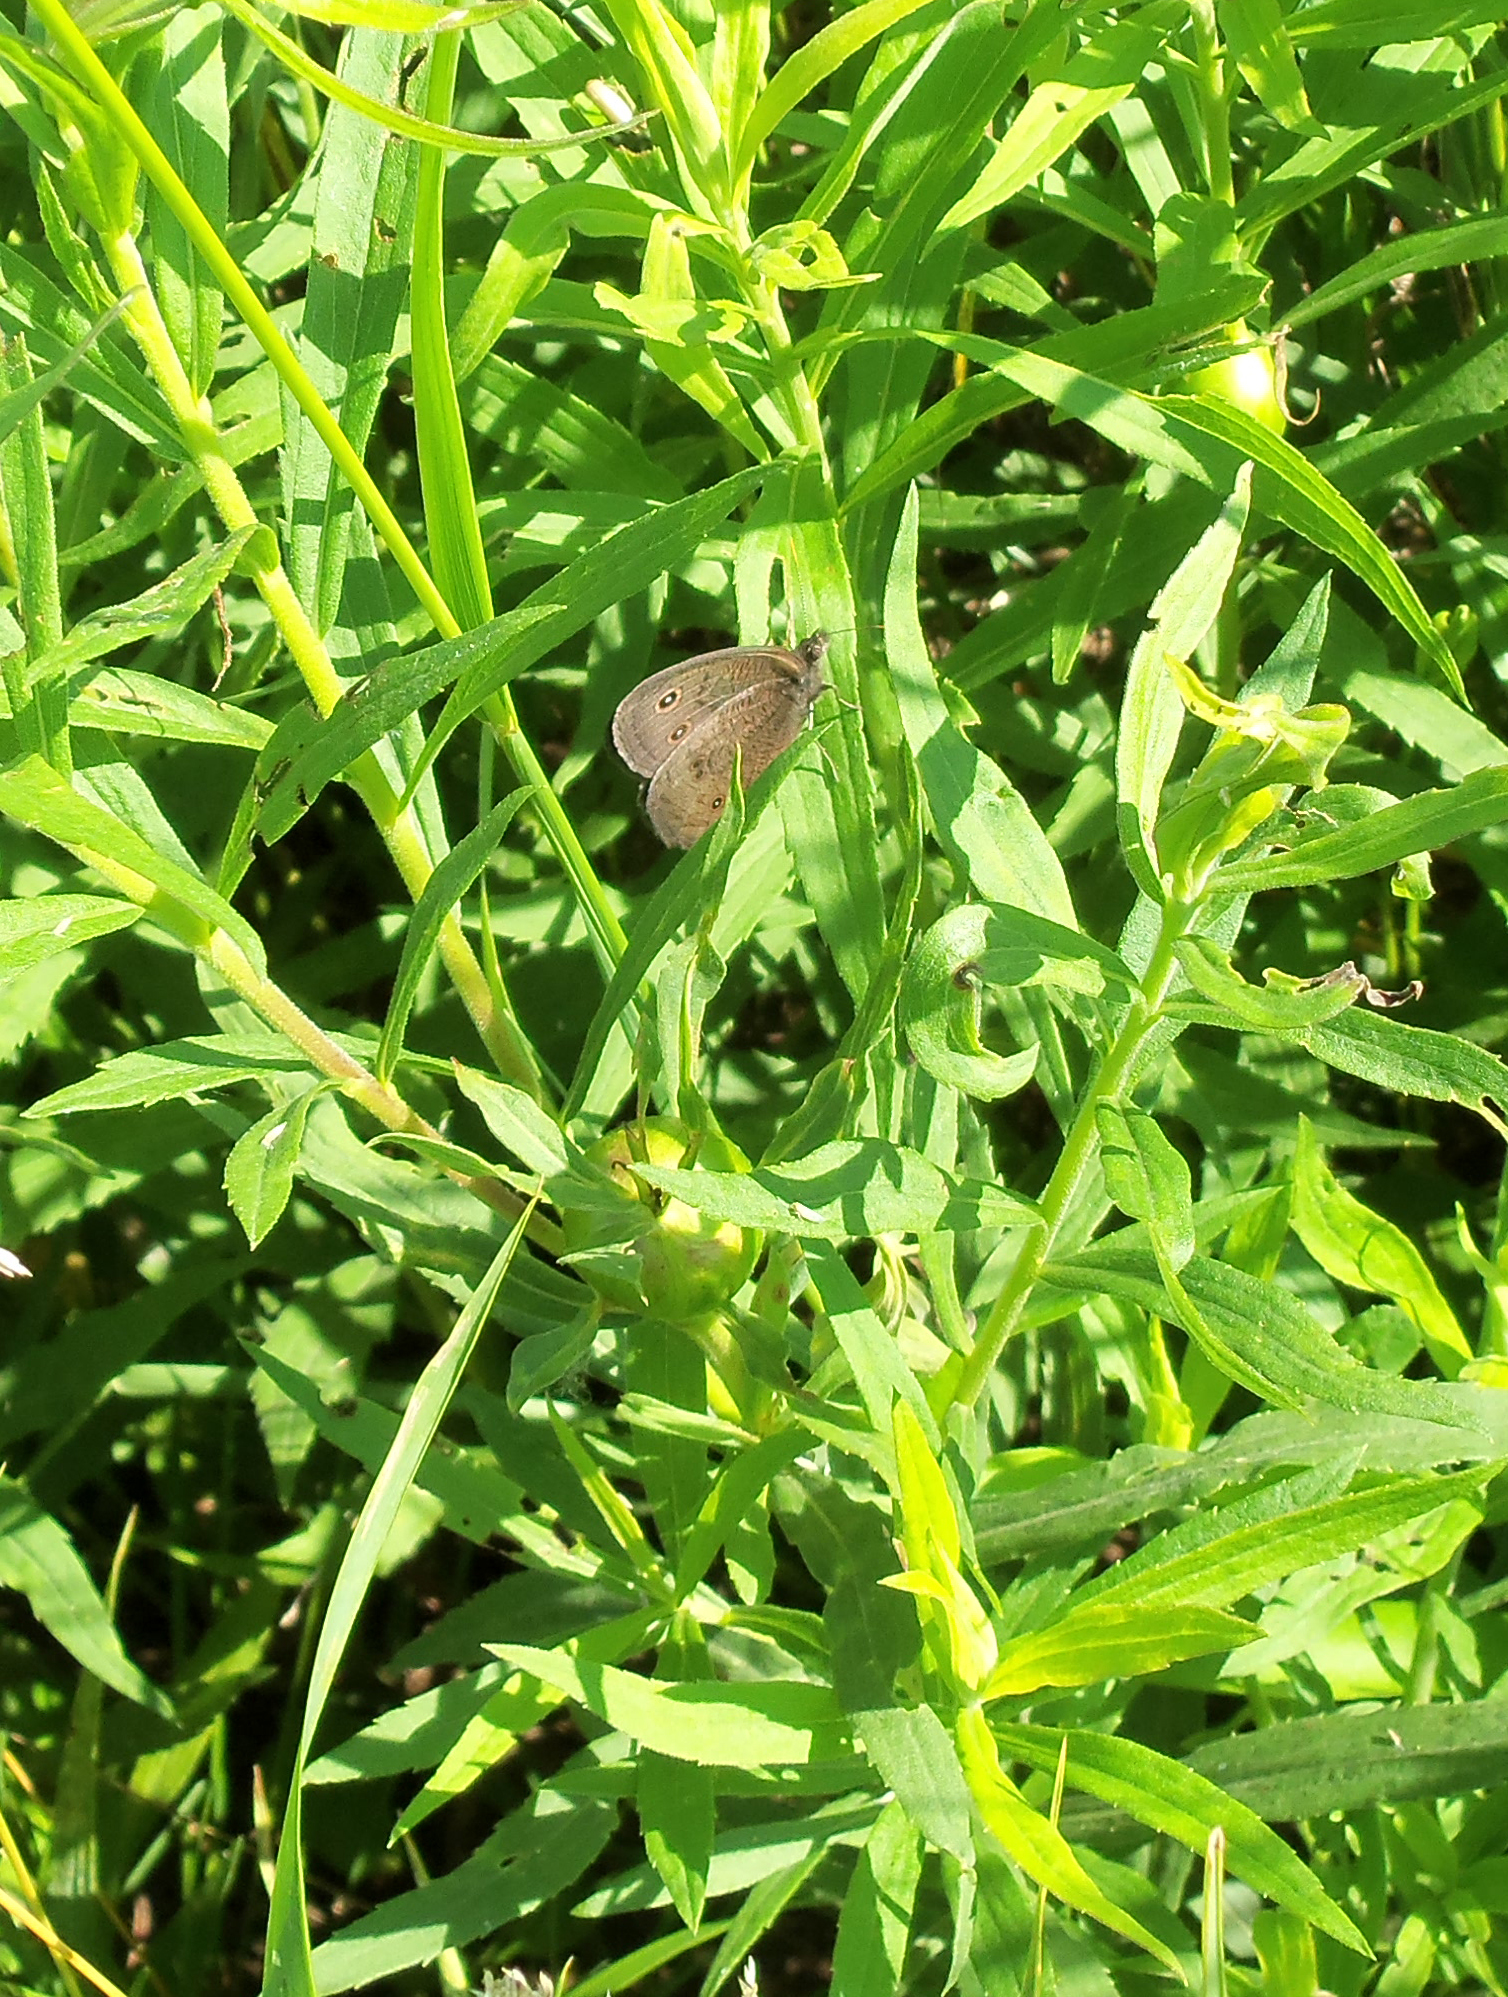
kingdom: Animalia
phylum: Arthropoda
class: Insecta
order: Lepidoptera
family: Nymphalidae
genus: Cercyonis
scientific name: Cercyonis pegala
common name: Common wood-nymph
